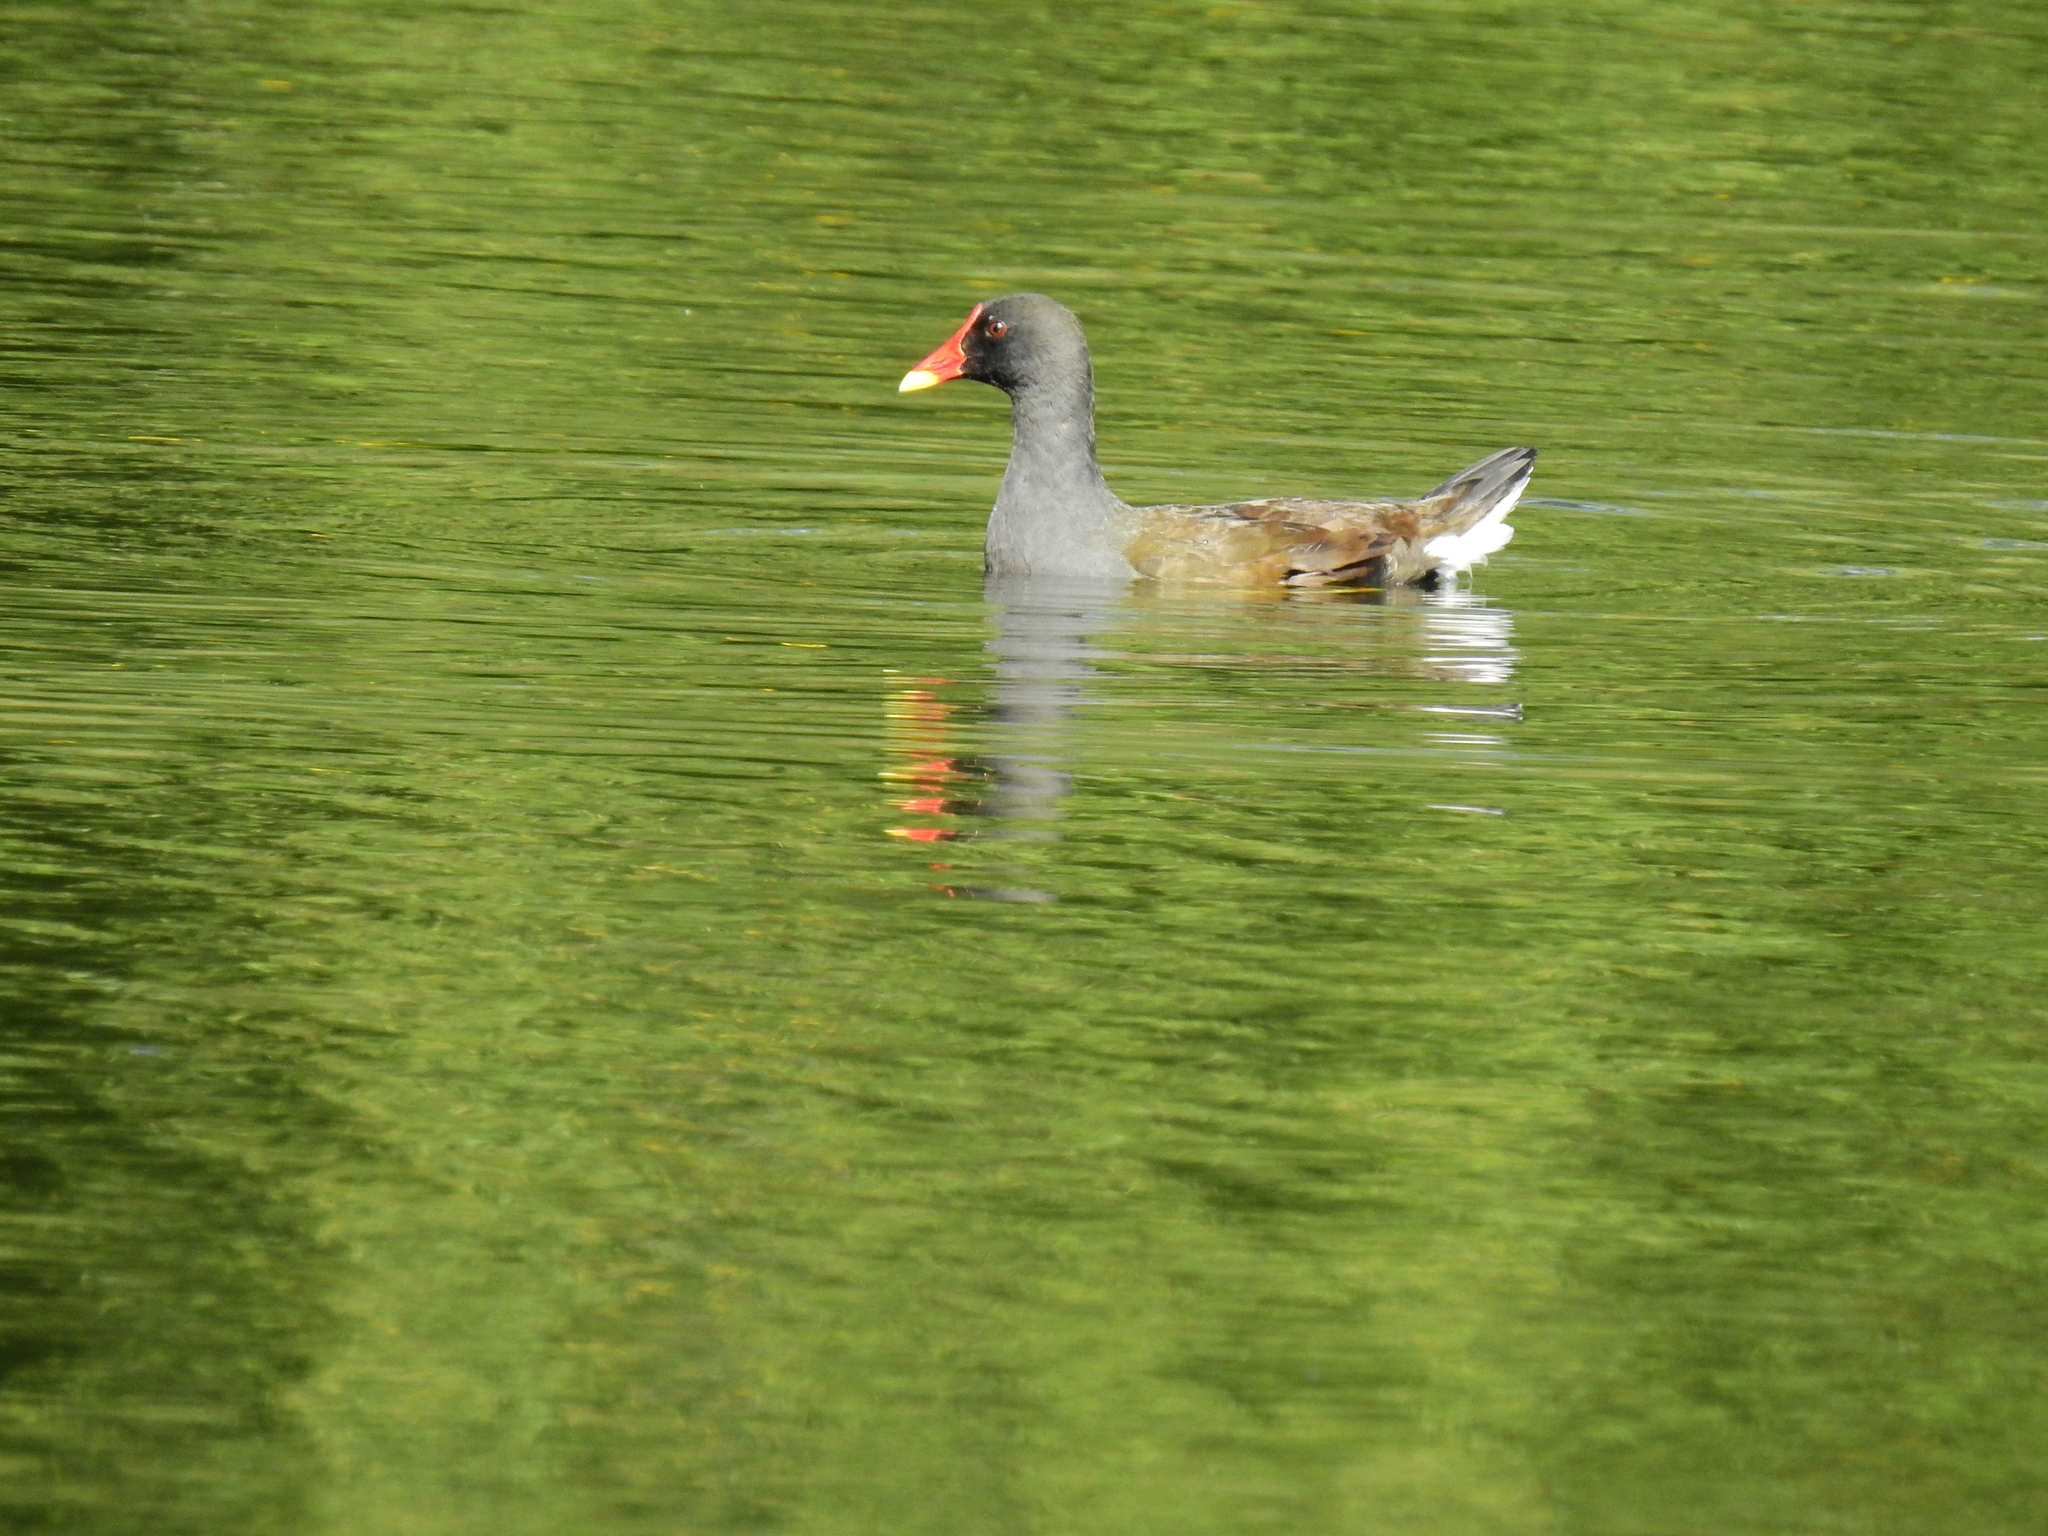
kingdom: Animalia
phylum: Chordata
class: Aves
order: Gruiformes
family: Rallidae
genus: Gallinula
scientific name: Gallinula chloropus
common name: Common moorhen
